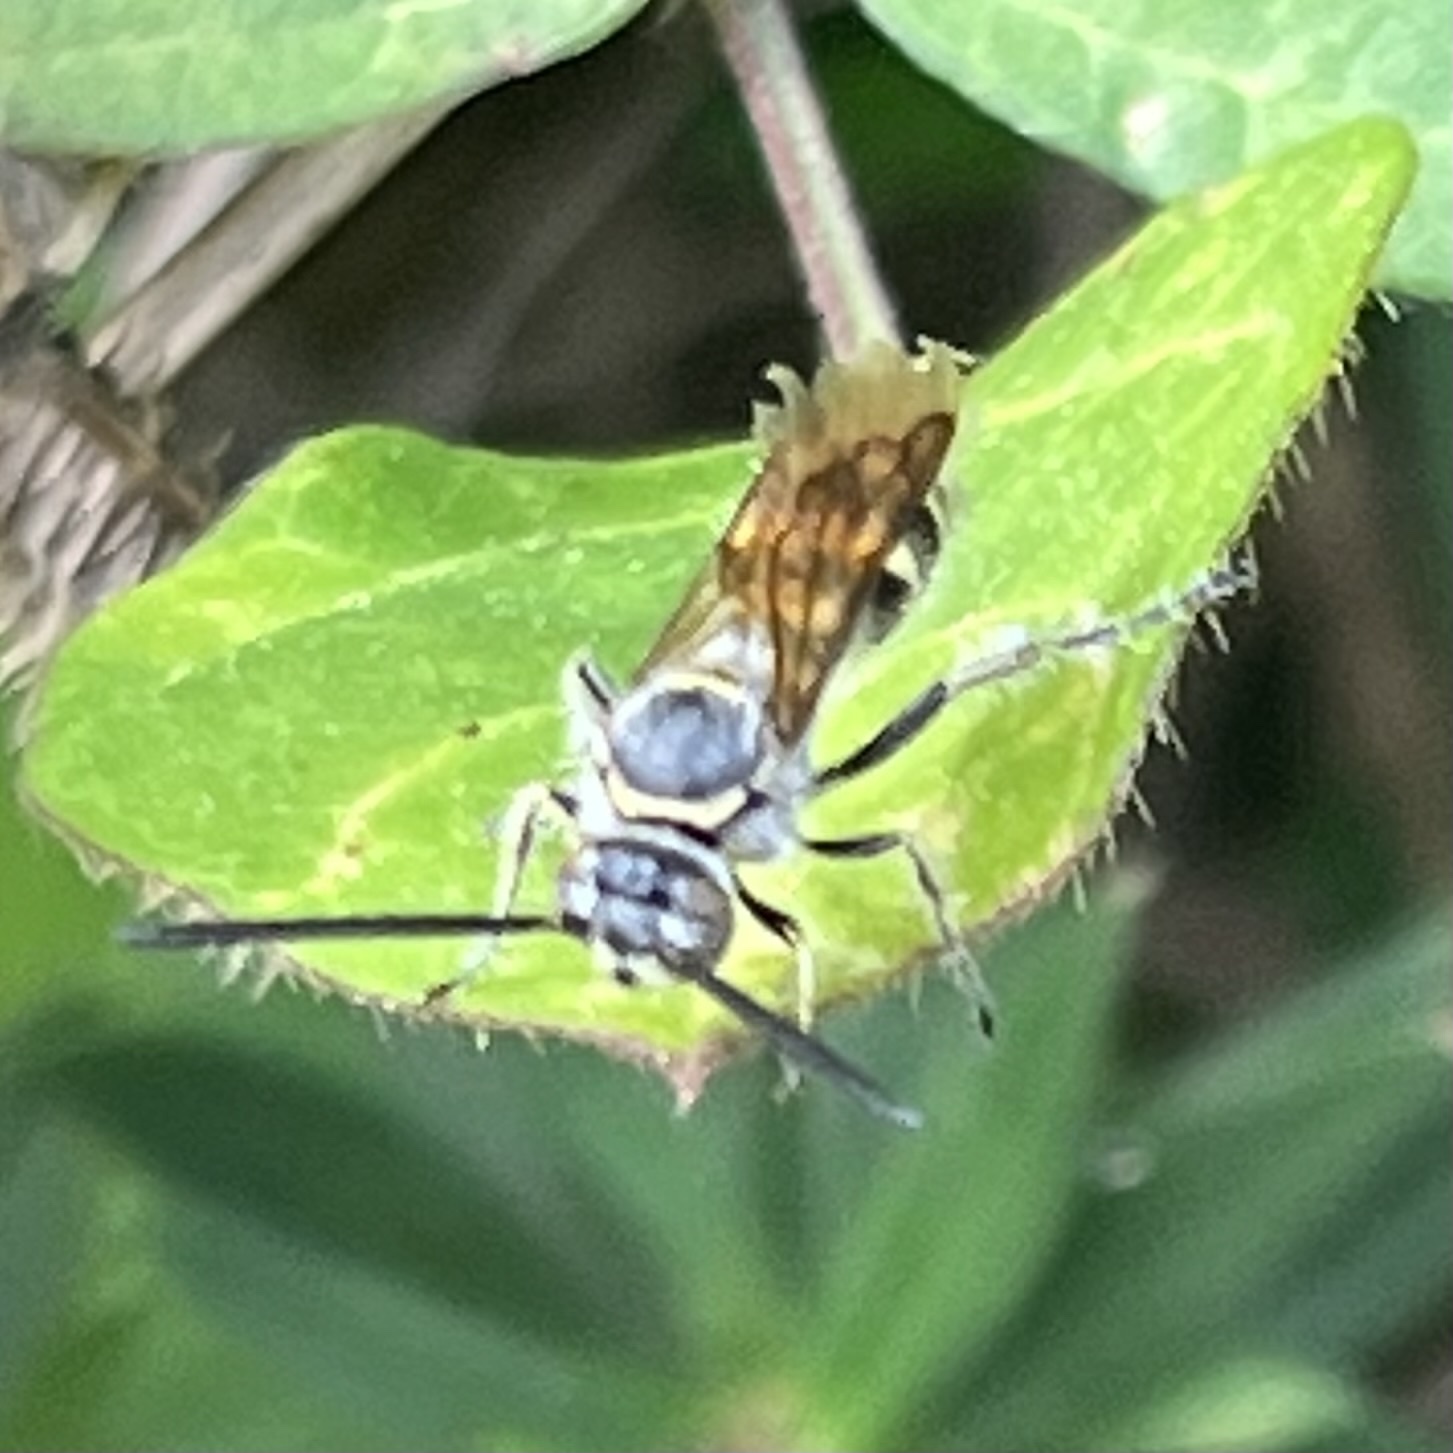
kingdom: Animalia
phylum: Arthropoda
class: Insecta
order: Hymenoptera
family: Scoliidae
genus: Dielis
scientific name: Dielis dorsata
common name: Scoliid wasp
